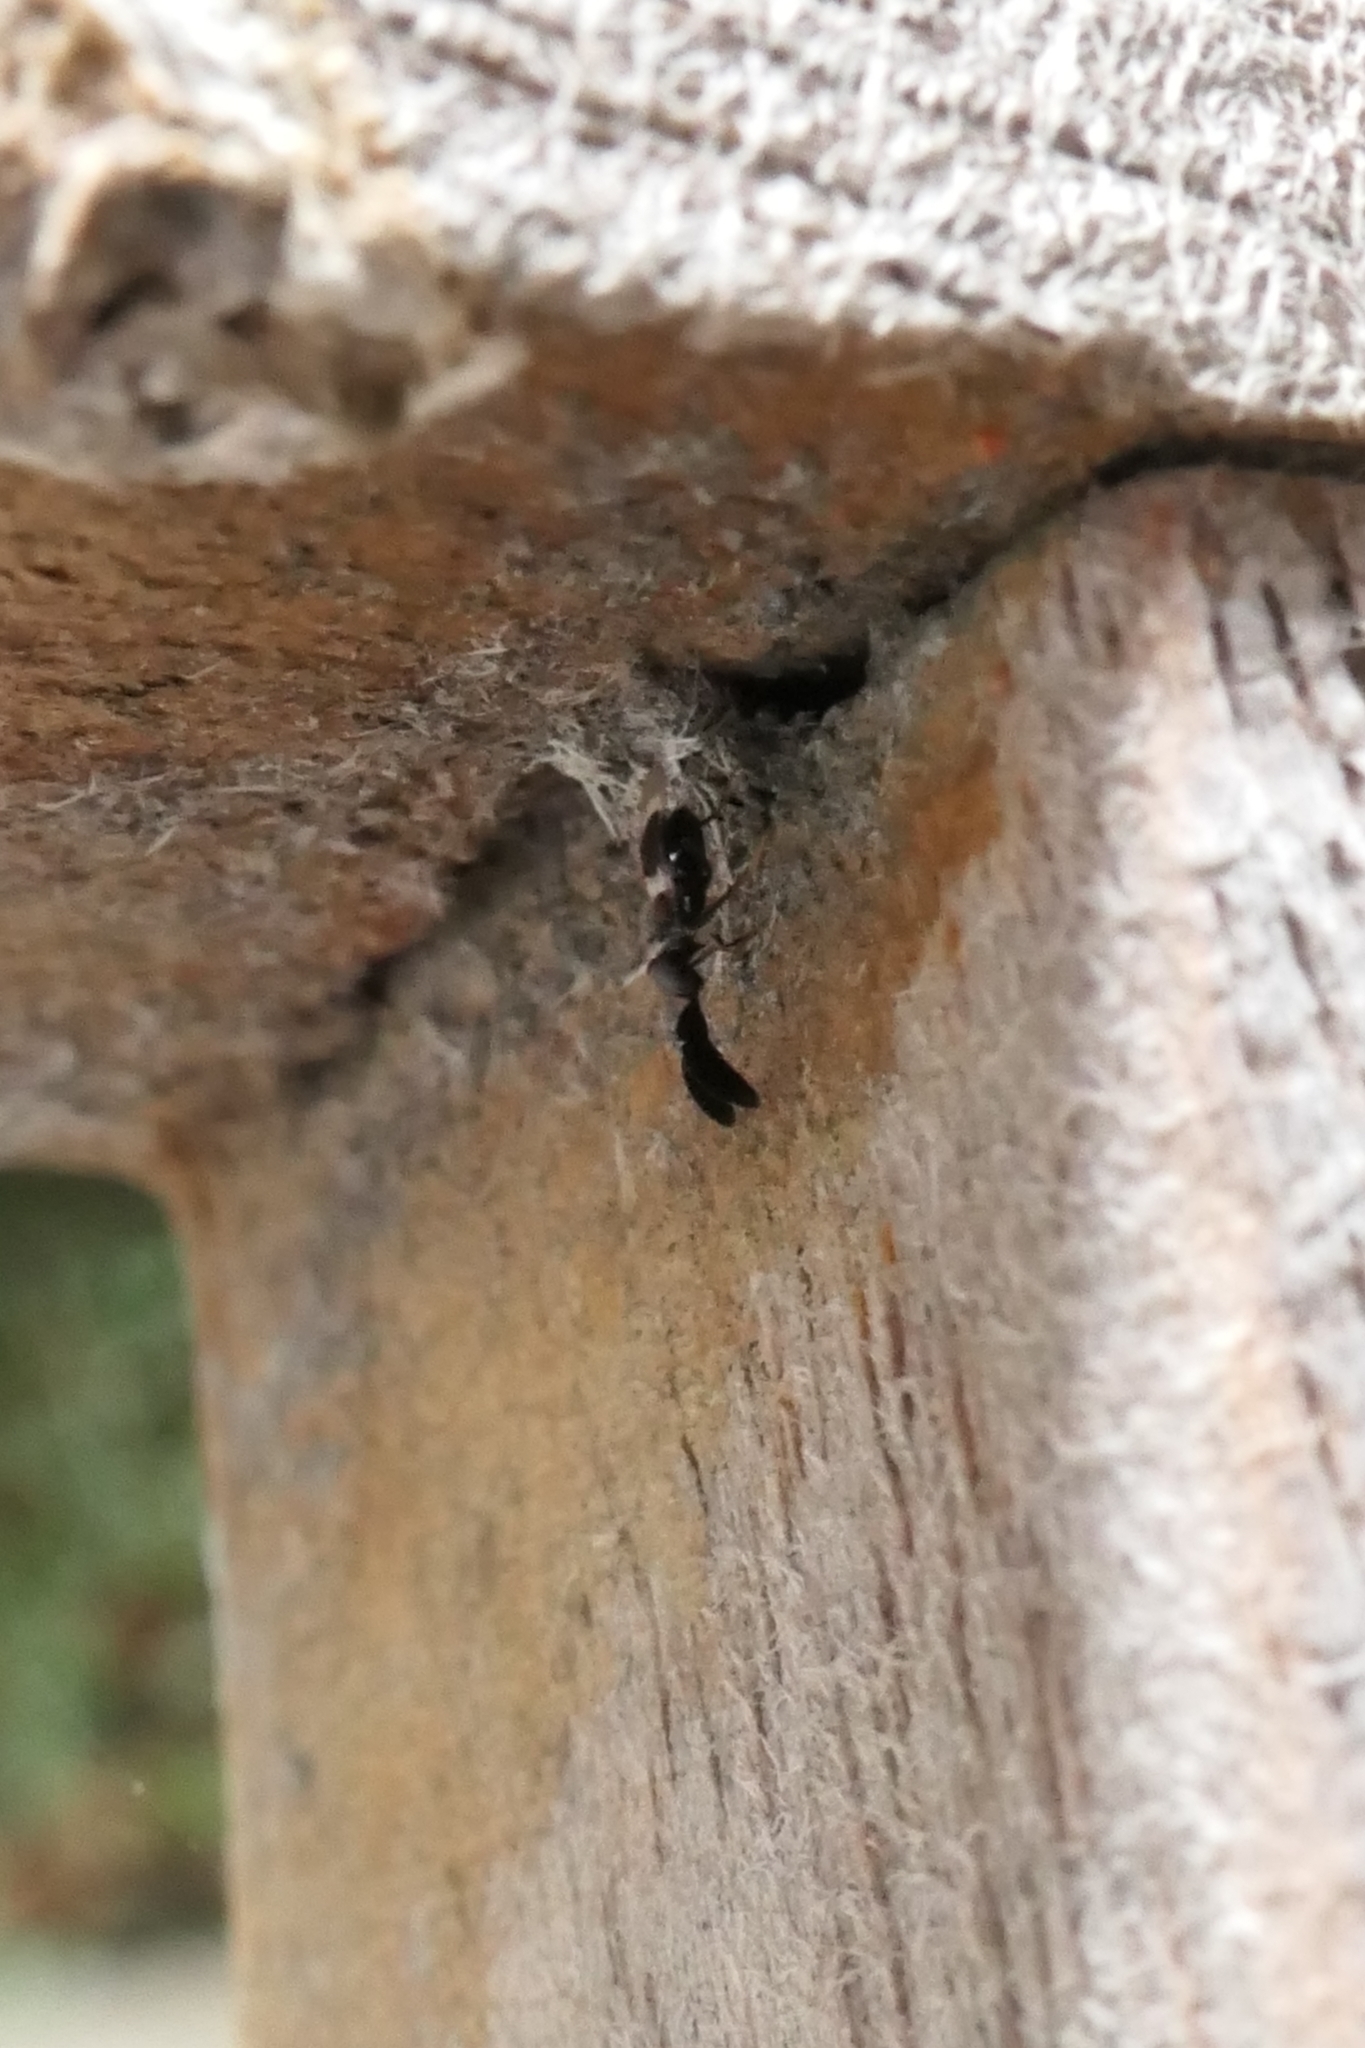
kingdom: Animalia
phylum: Arthropoda
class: Insecta
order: Hymenoptera
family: Encyrtidae
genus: Cryptanusia
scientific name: Cryptanusia aureiscutellum
